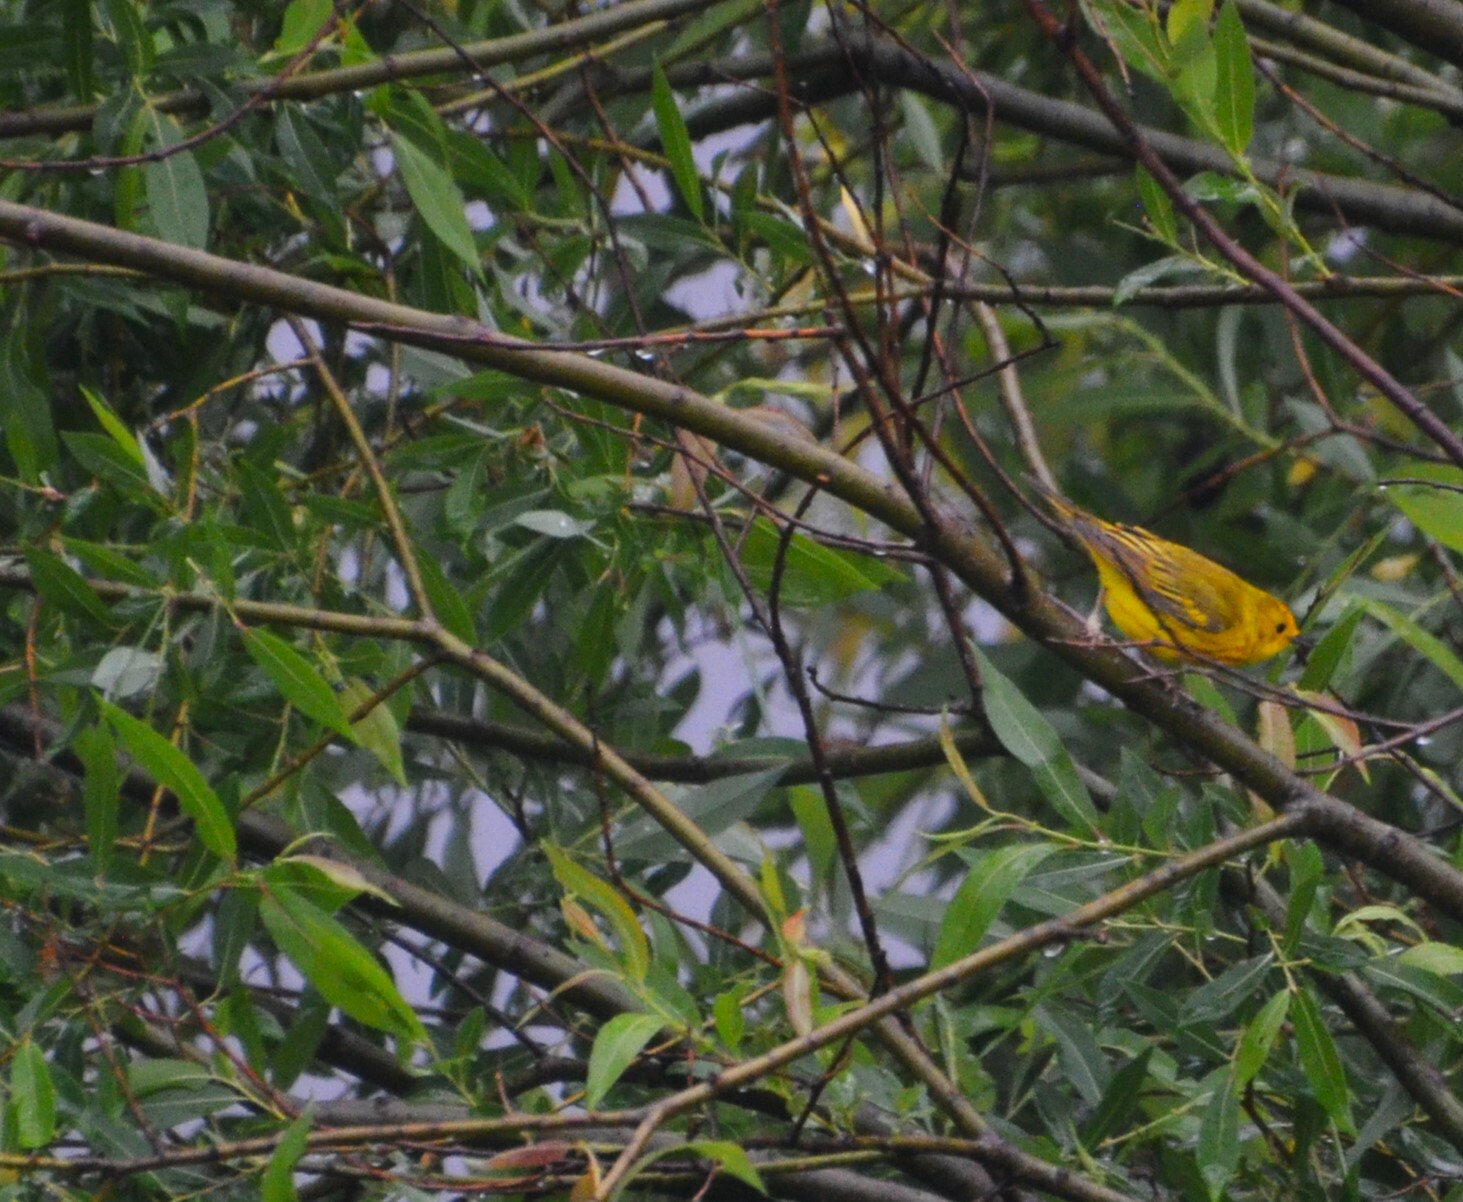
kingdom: Animalia
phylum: Chordata
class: Aves
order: Passeriformes
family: Parulidae
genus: Setophaga
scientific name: Setophaga petechia
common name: Yellow warbler
